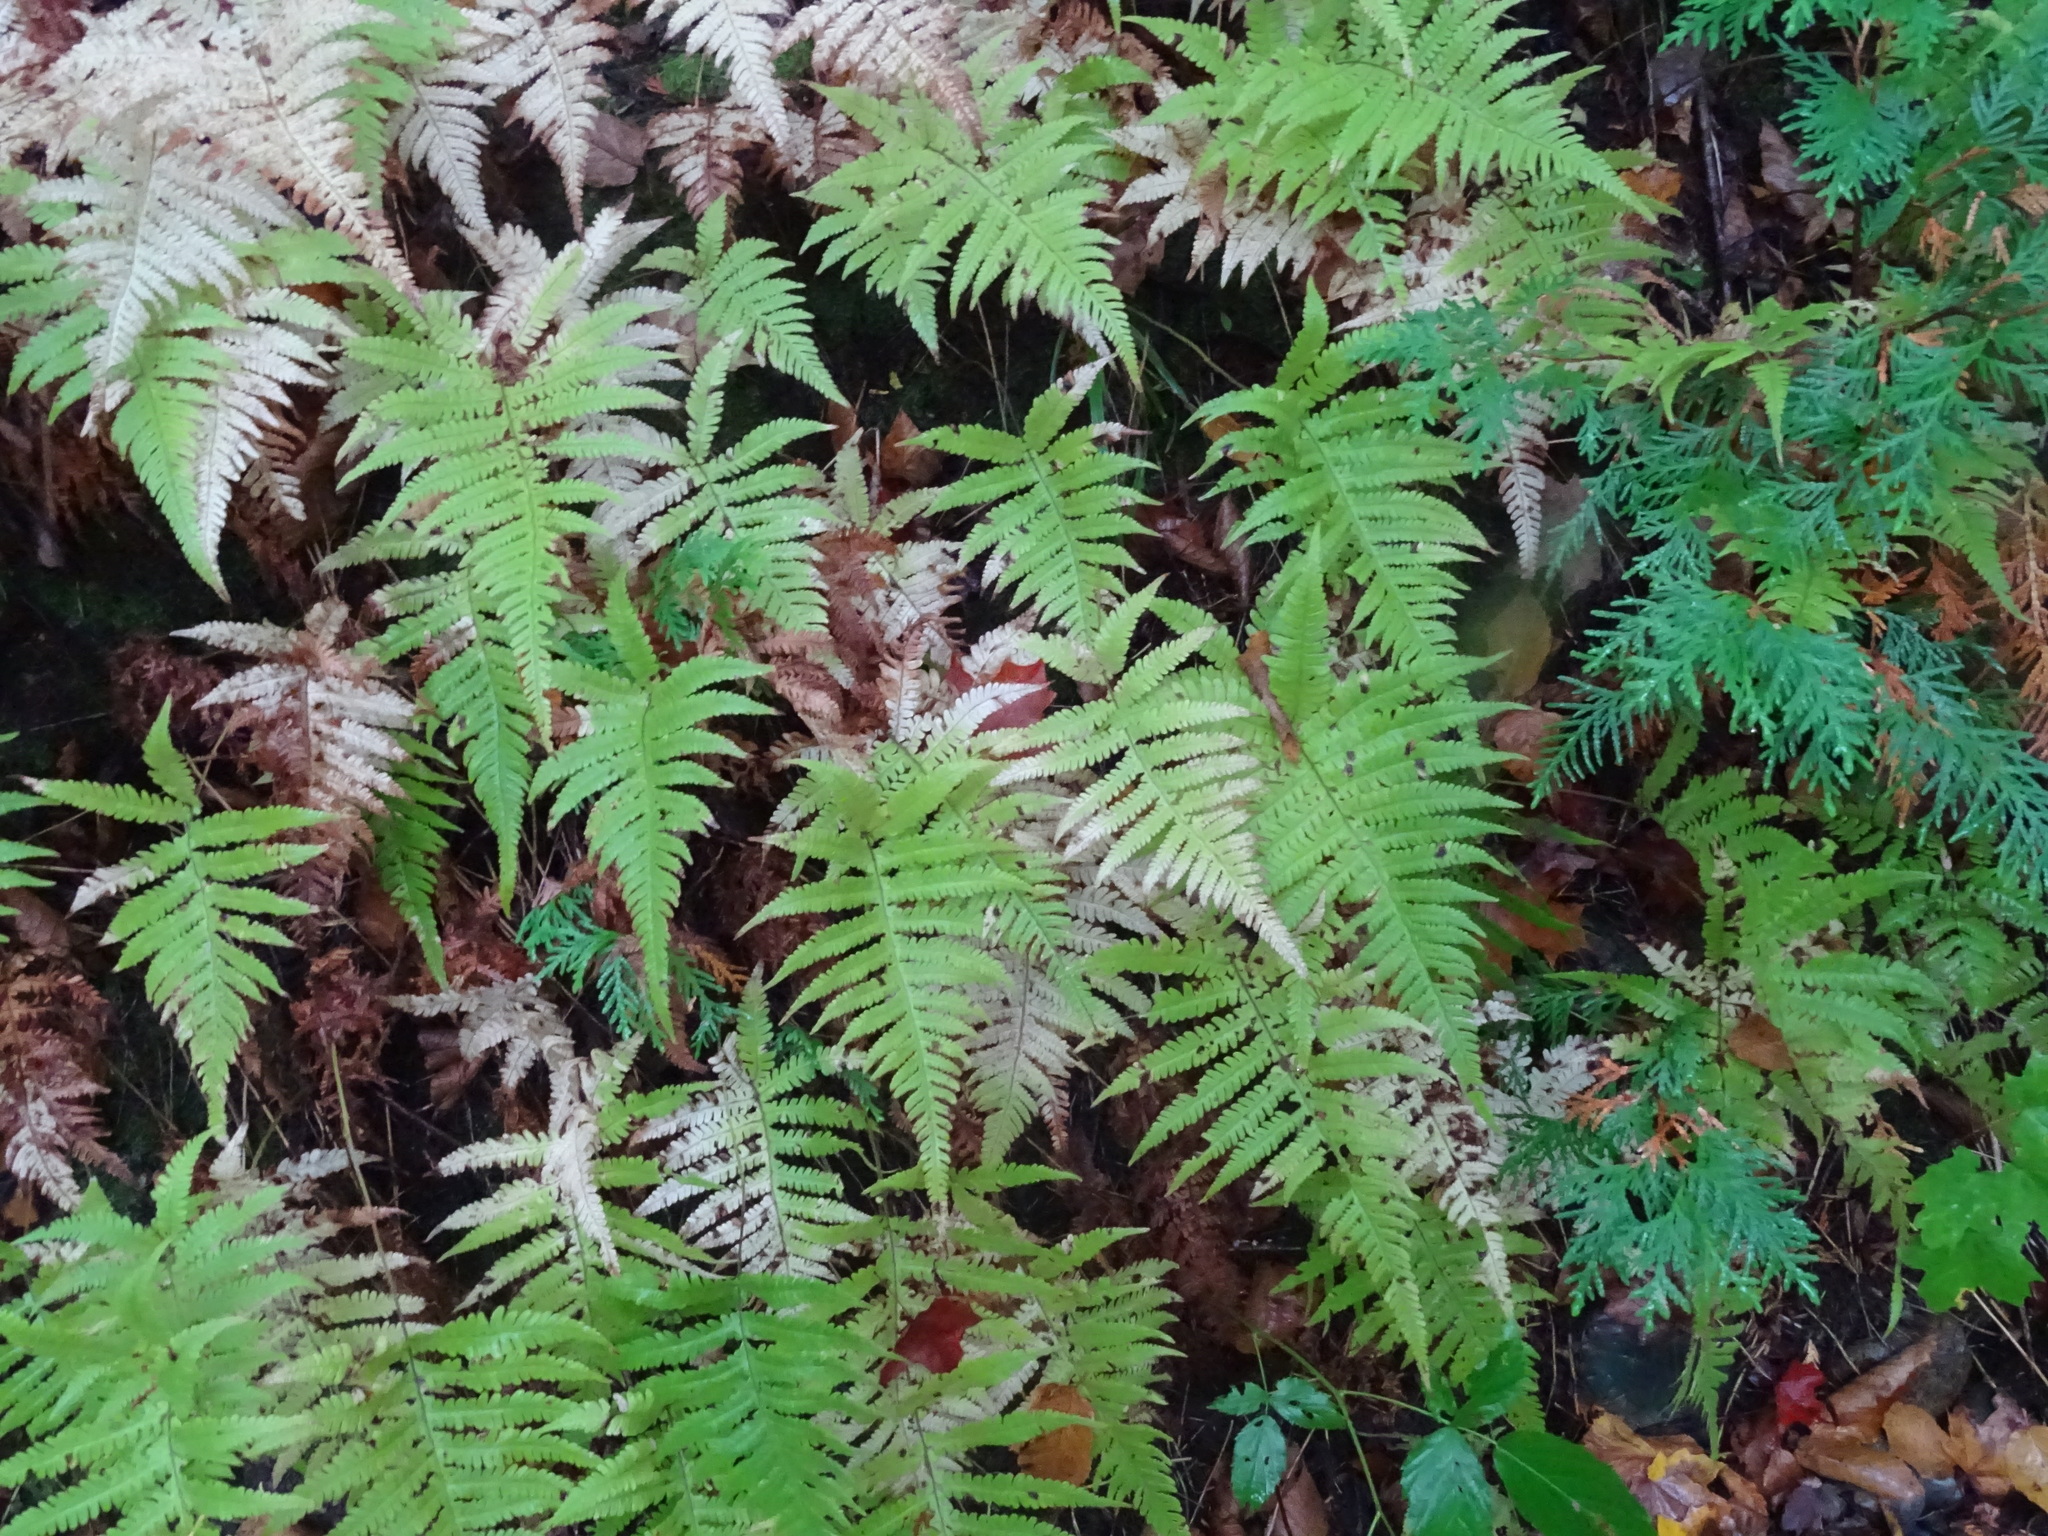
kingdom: Plantae
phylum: Tracheophyta
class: Polypodiopsida
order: Polypodiales
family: Thelypteridaceae
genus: Phegopteris
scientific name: Phegopteris connectilis
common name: Beech fern
